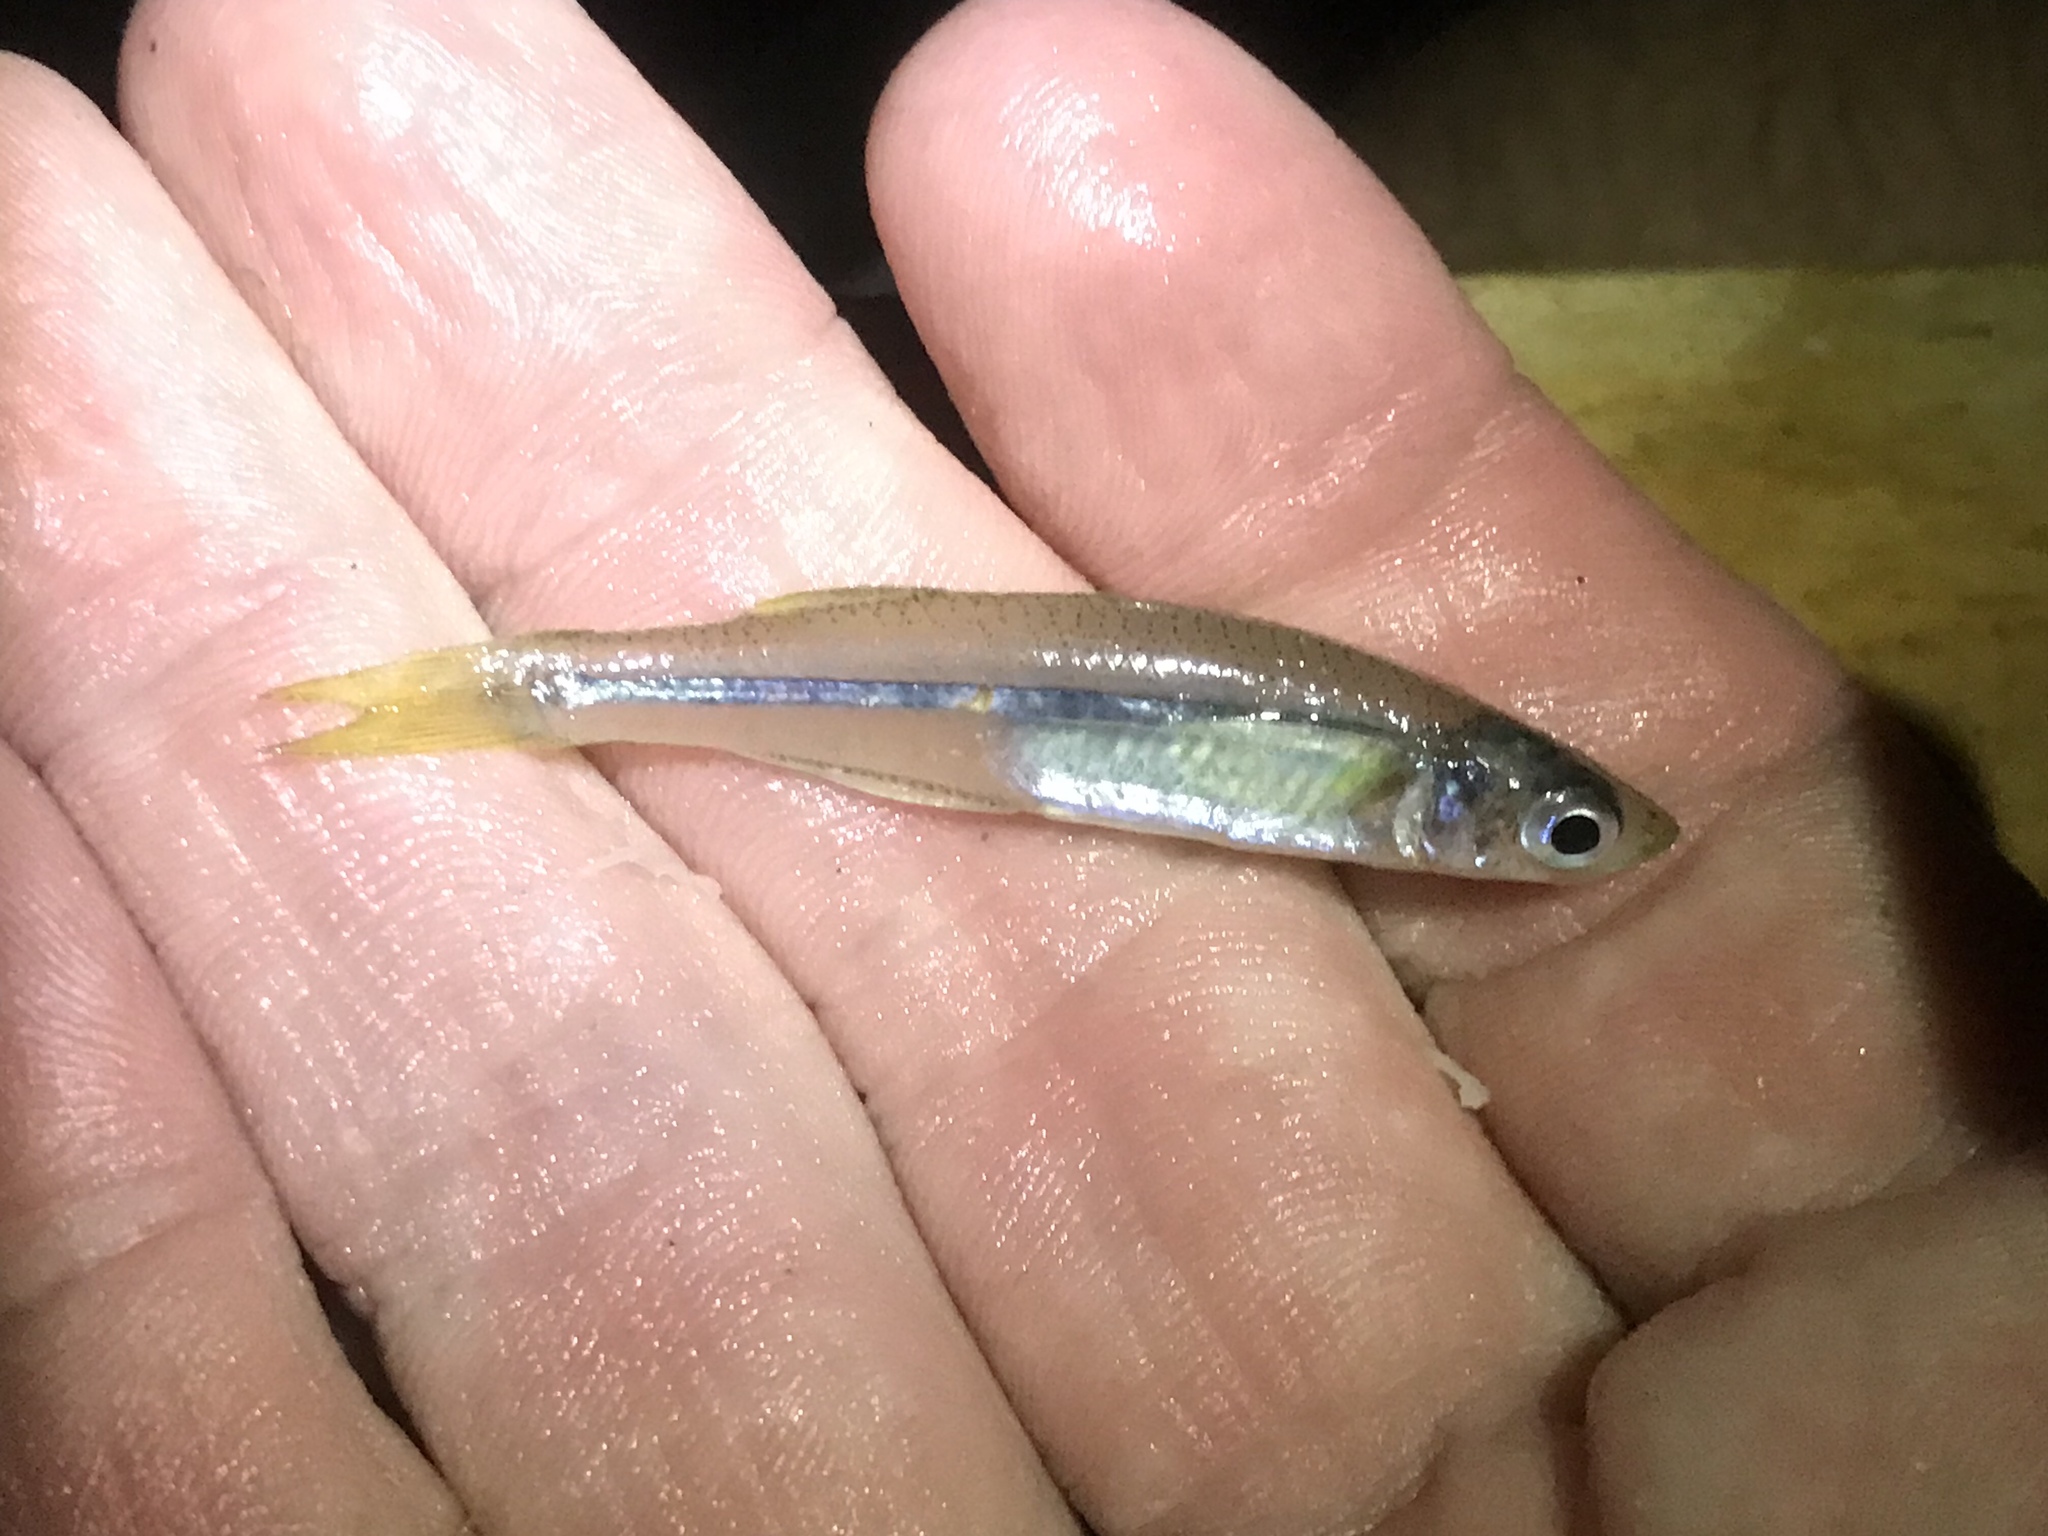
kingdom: Animalia
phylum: Chordata
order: Atheriniformes
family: Atherinopsidae
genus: Menidia
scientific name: Menidia beryllina
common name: Inland silverside
